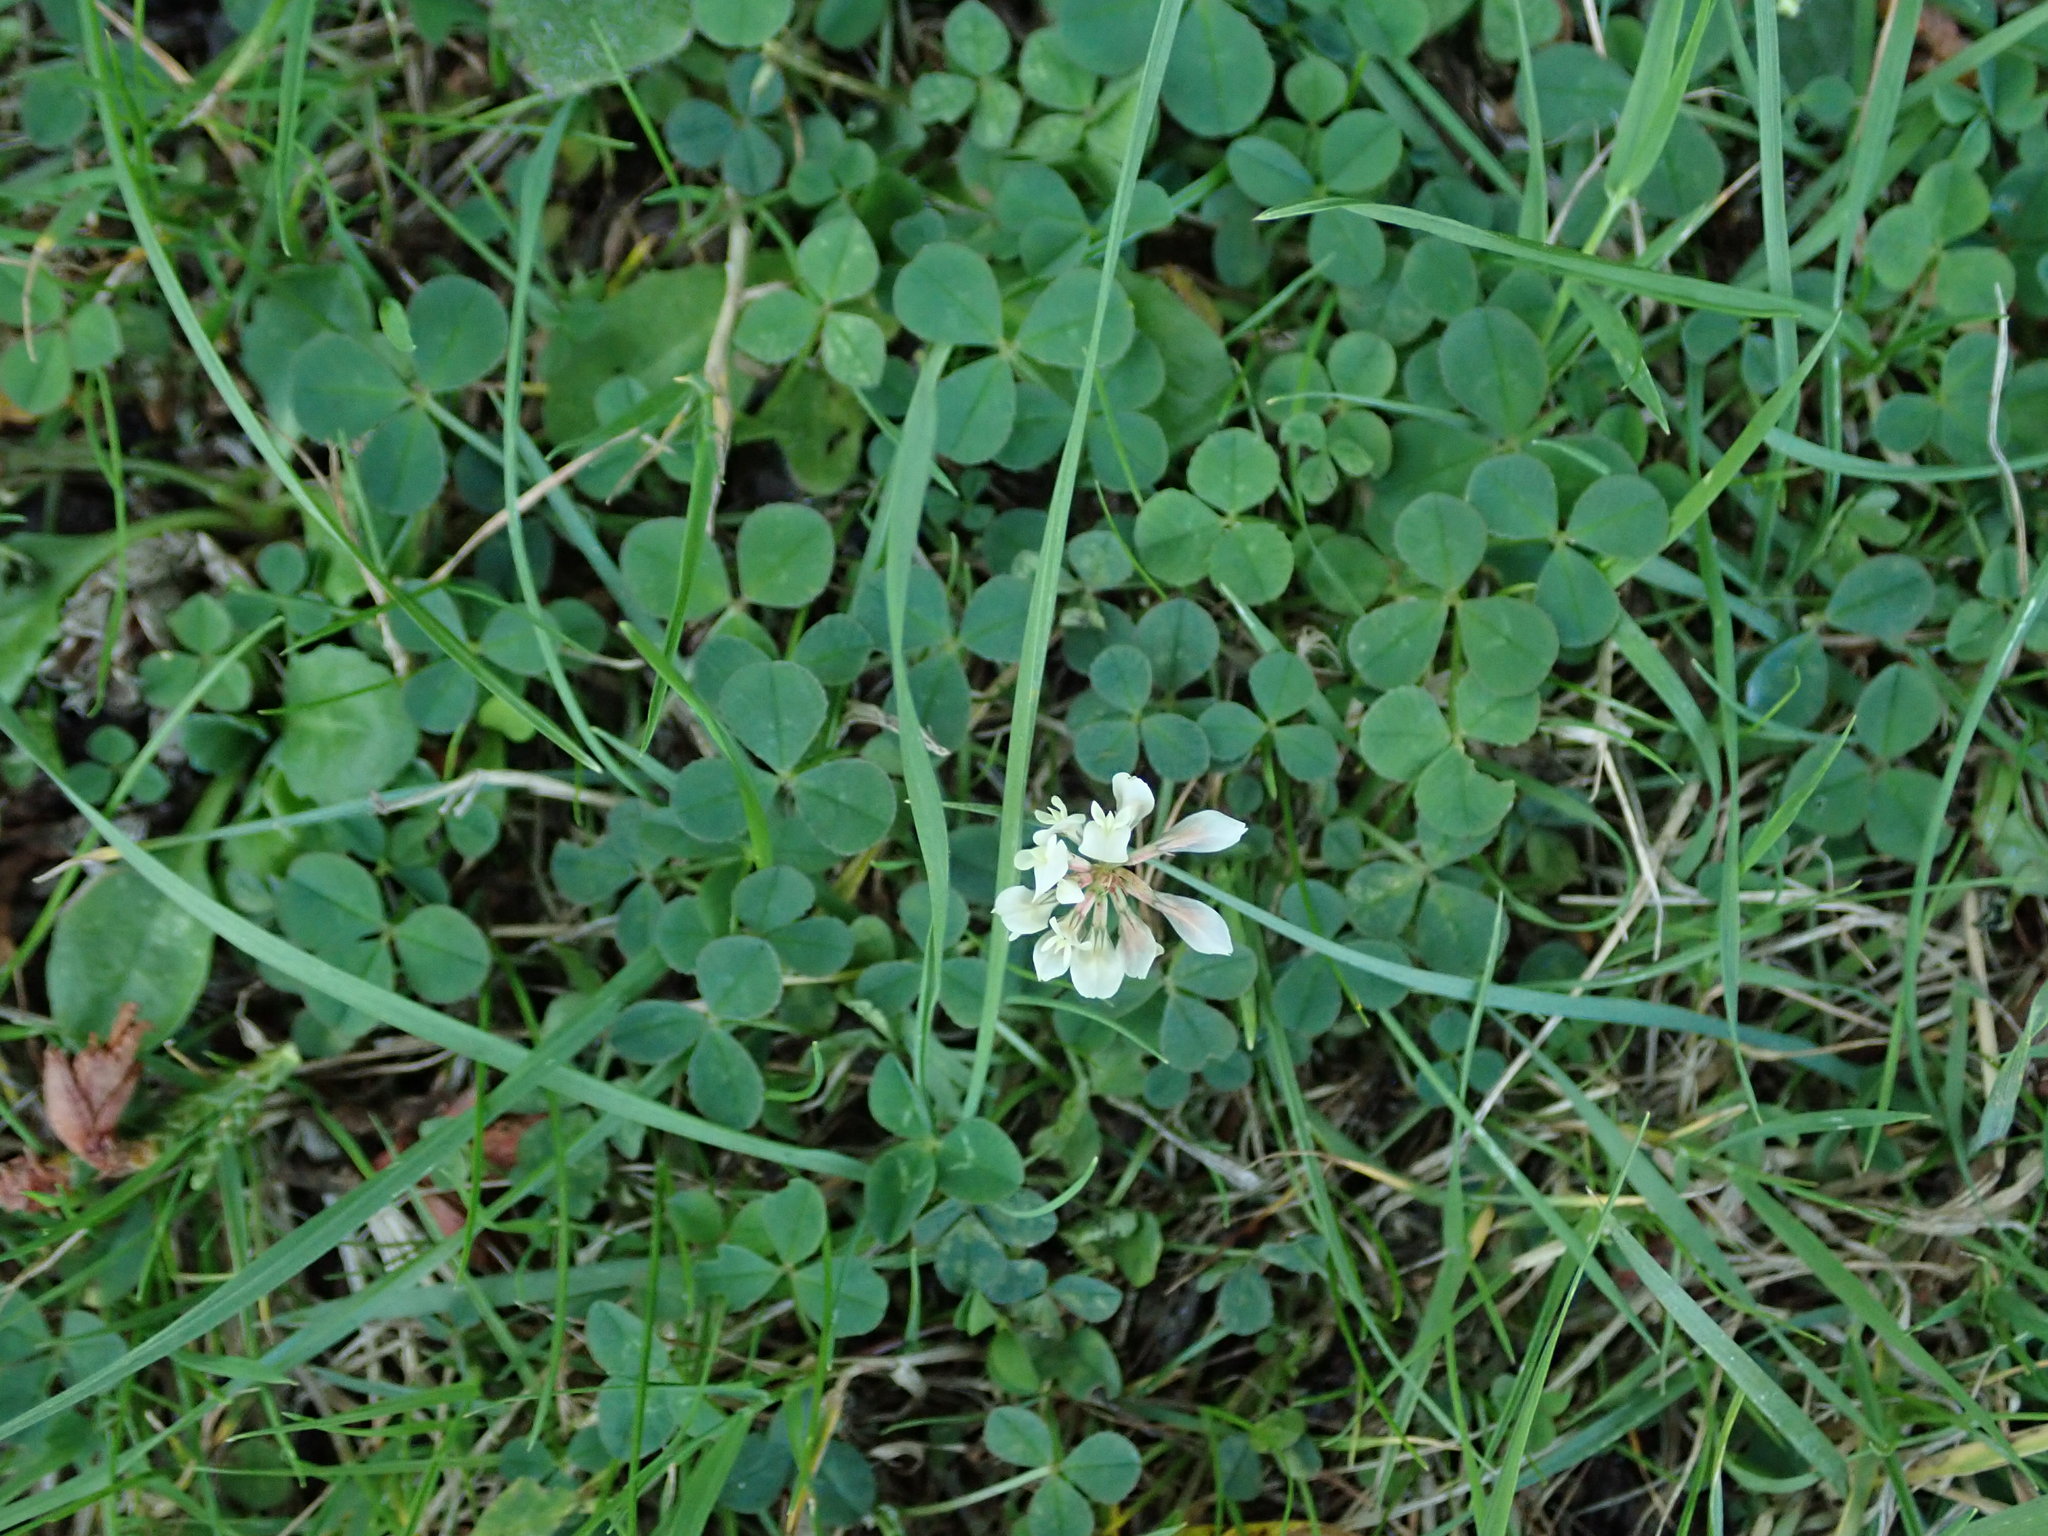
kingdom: Plantae
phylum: Tracheophyta
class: Magnoliopsida
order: Fabales
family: Fabaceae
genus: Trifolium
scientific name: Trifolium repens
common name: White clover
